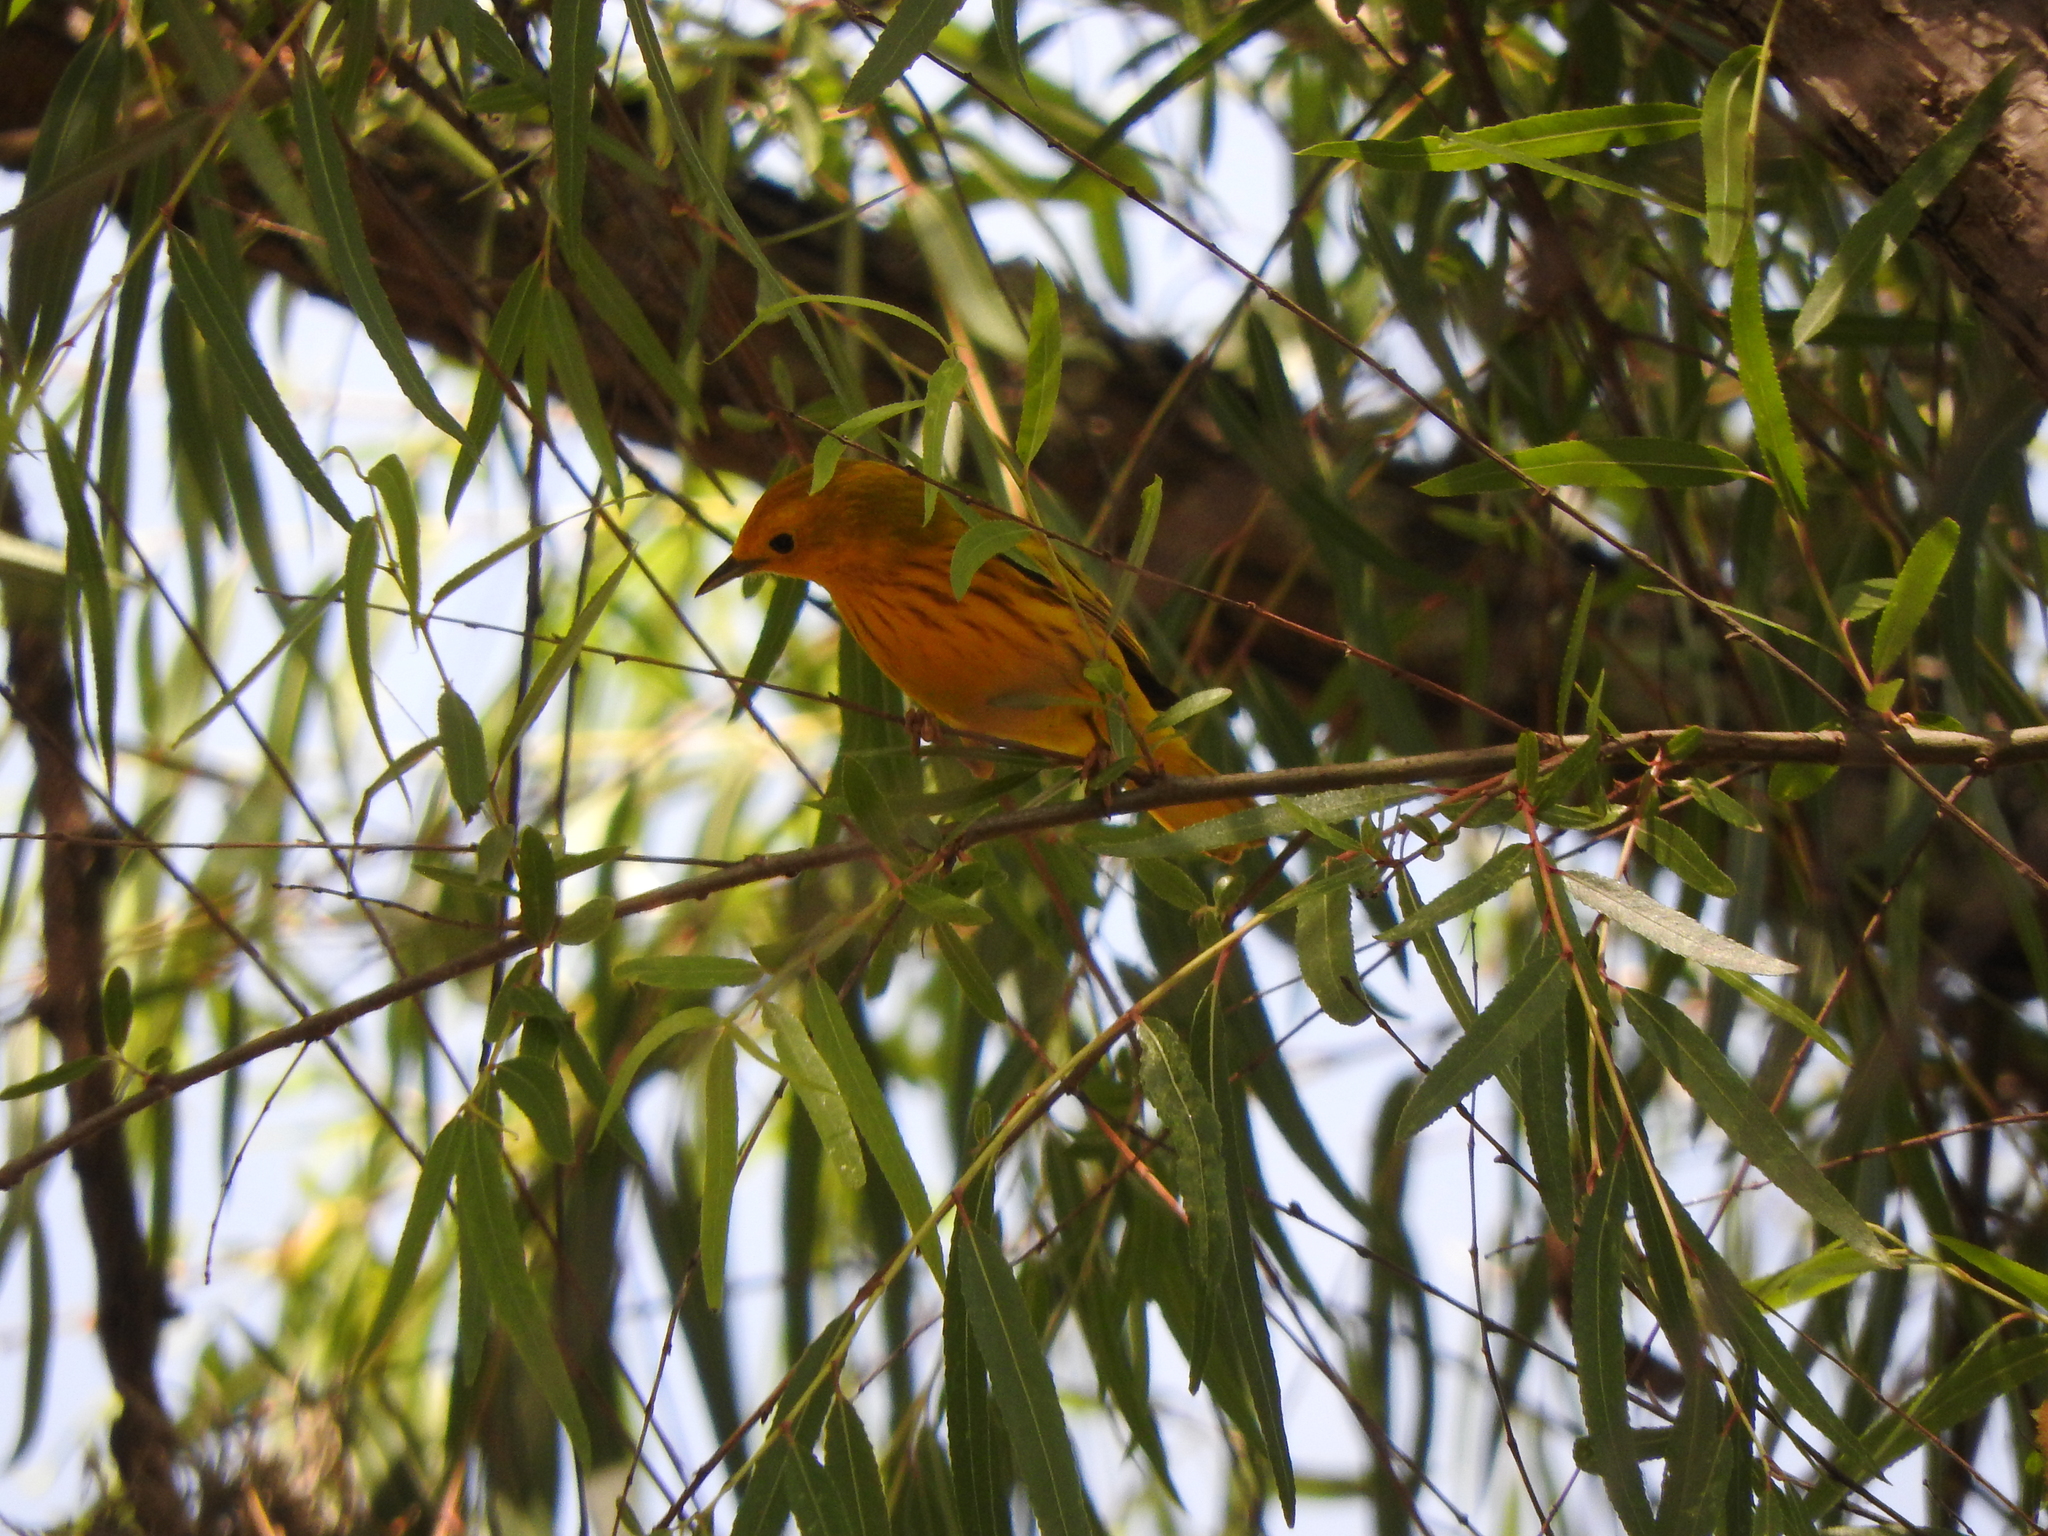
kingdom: Animalia
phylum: Chordata
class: Aves
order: Passeriformes
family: Parulidae
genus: Setophaga
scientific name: Setophaga petechia
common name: Yellow warbler
